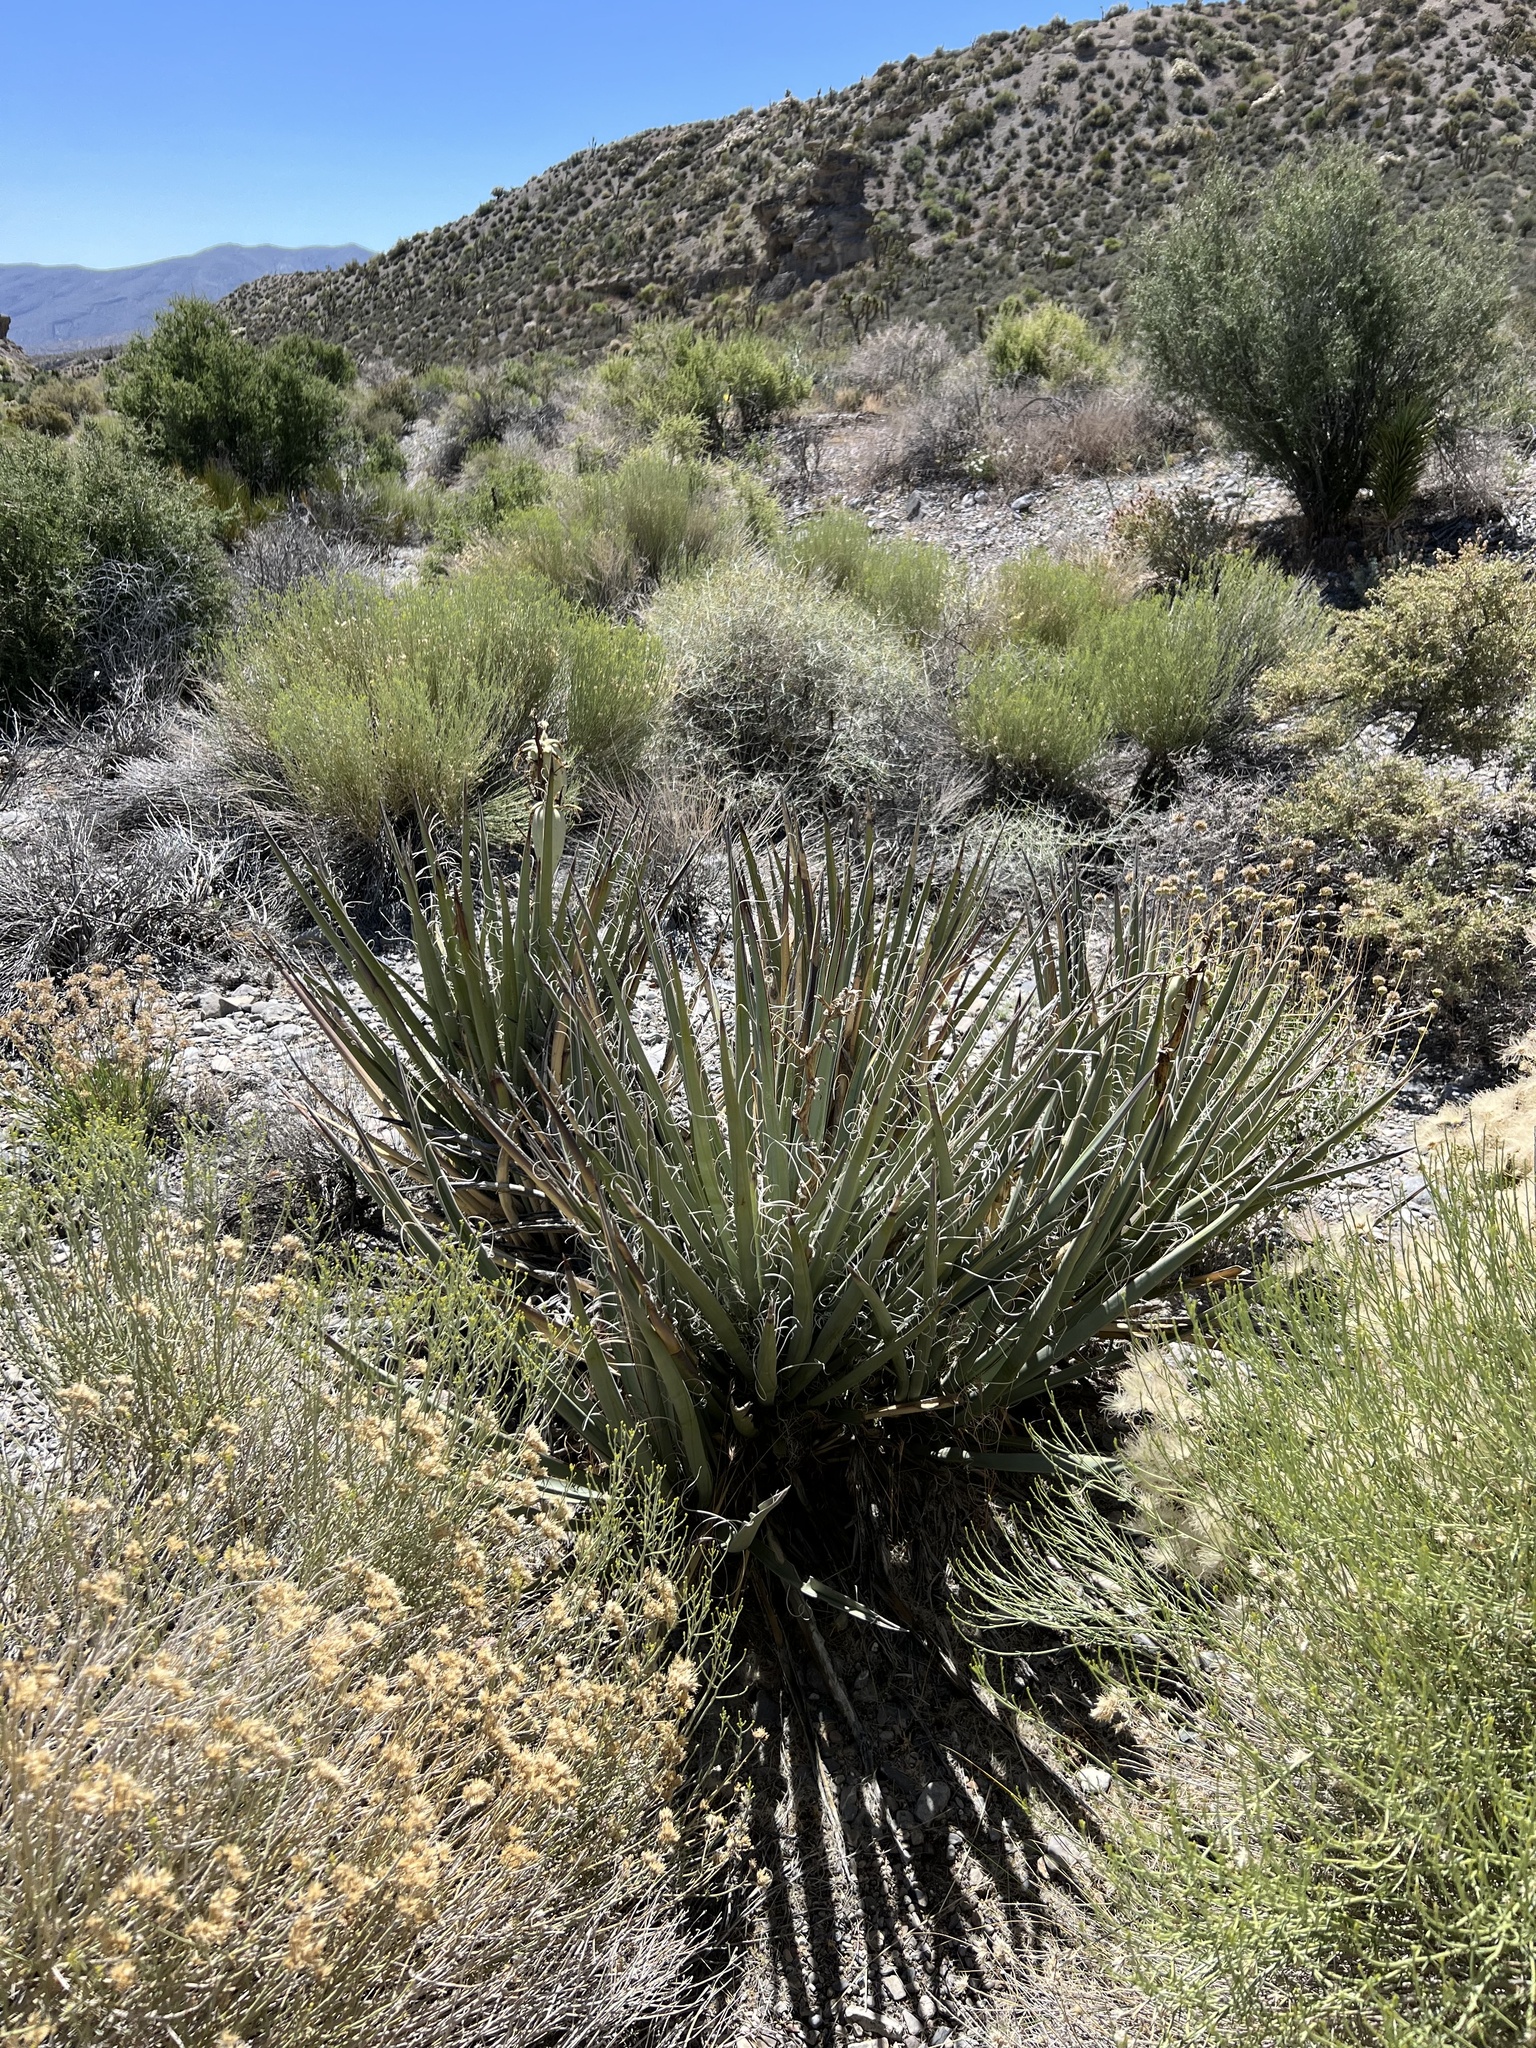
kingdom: Plantae
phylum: Tracheophyta
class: Liliopsida
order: Asparagales
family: Asparagaceae
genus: Yucca
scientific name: Yucca baccata
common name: Banana yucca
